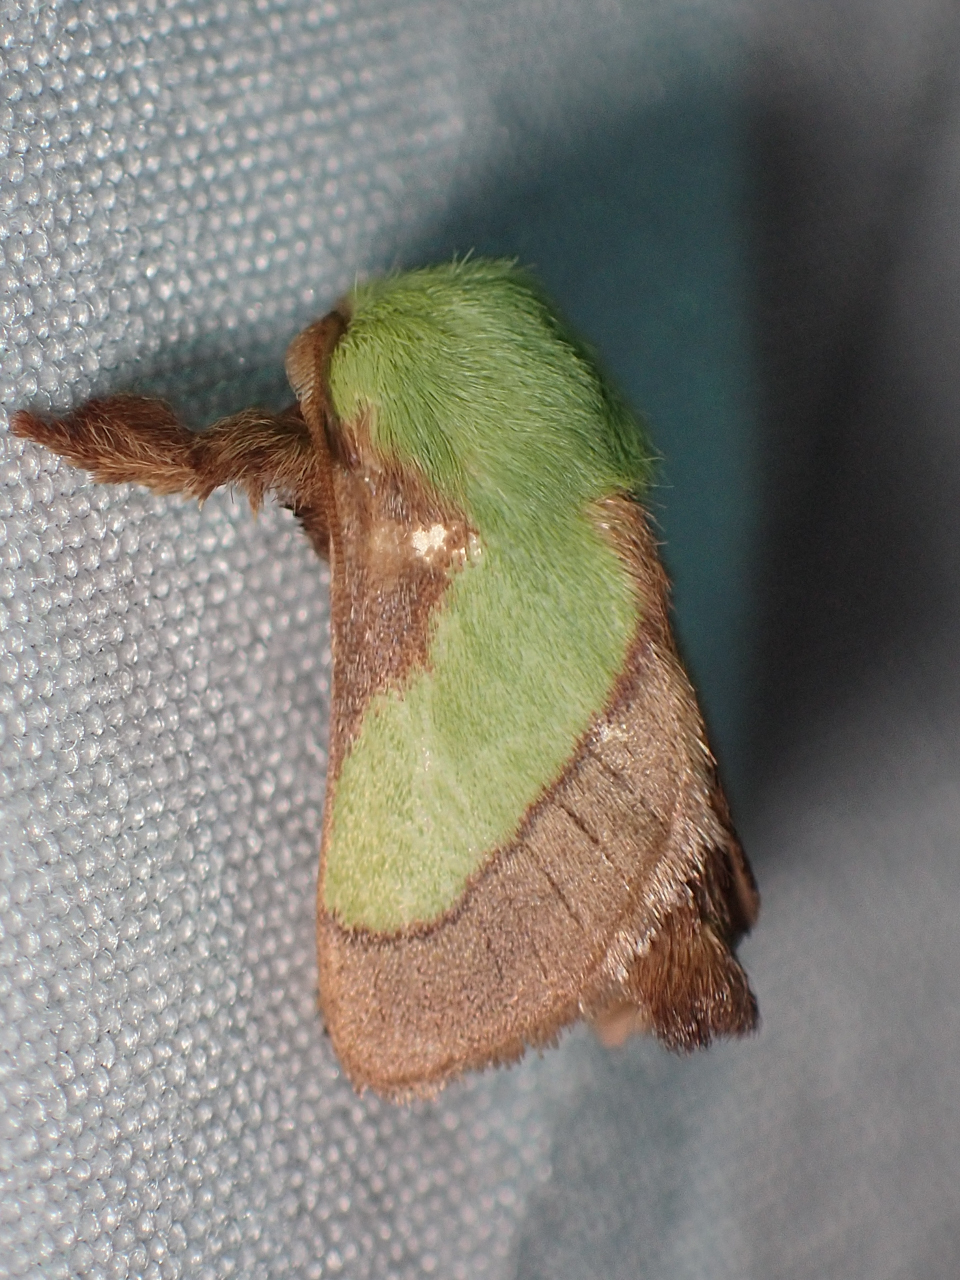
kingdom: Animalia
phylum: Arthropoda
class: Insecta
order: Lepidoptera
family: Limacodidae
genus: Parasa
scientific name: Parasa chloris
